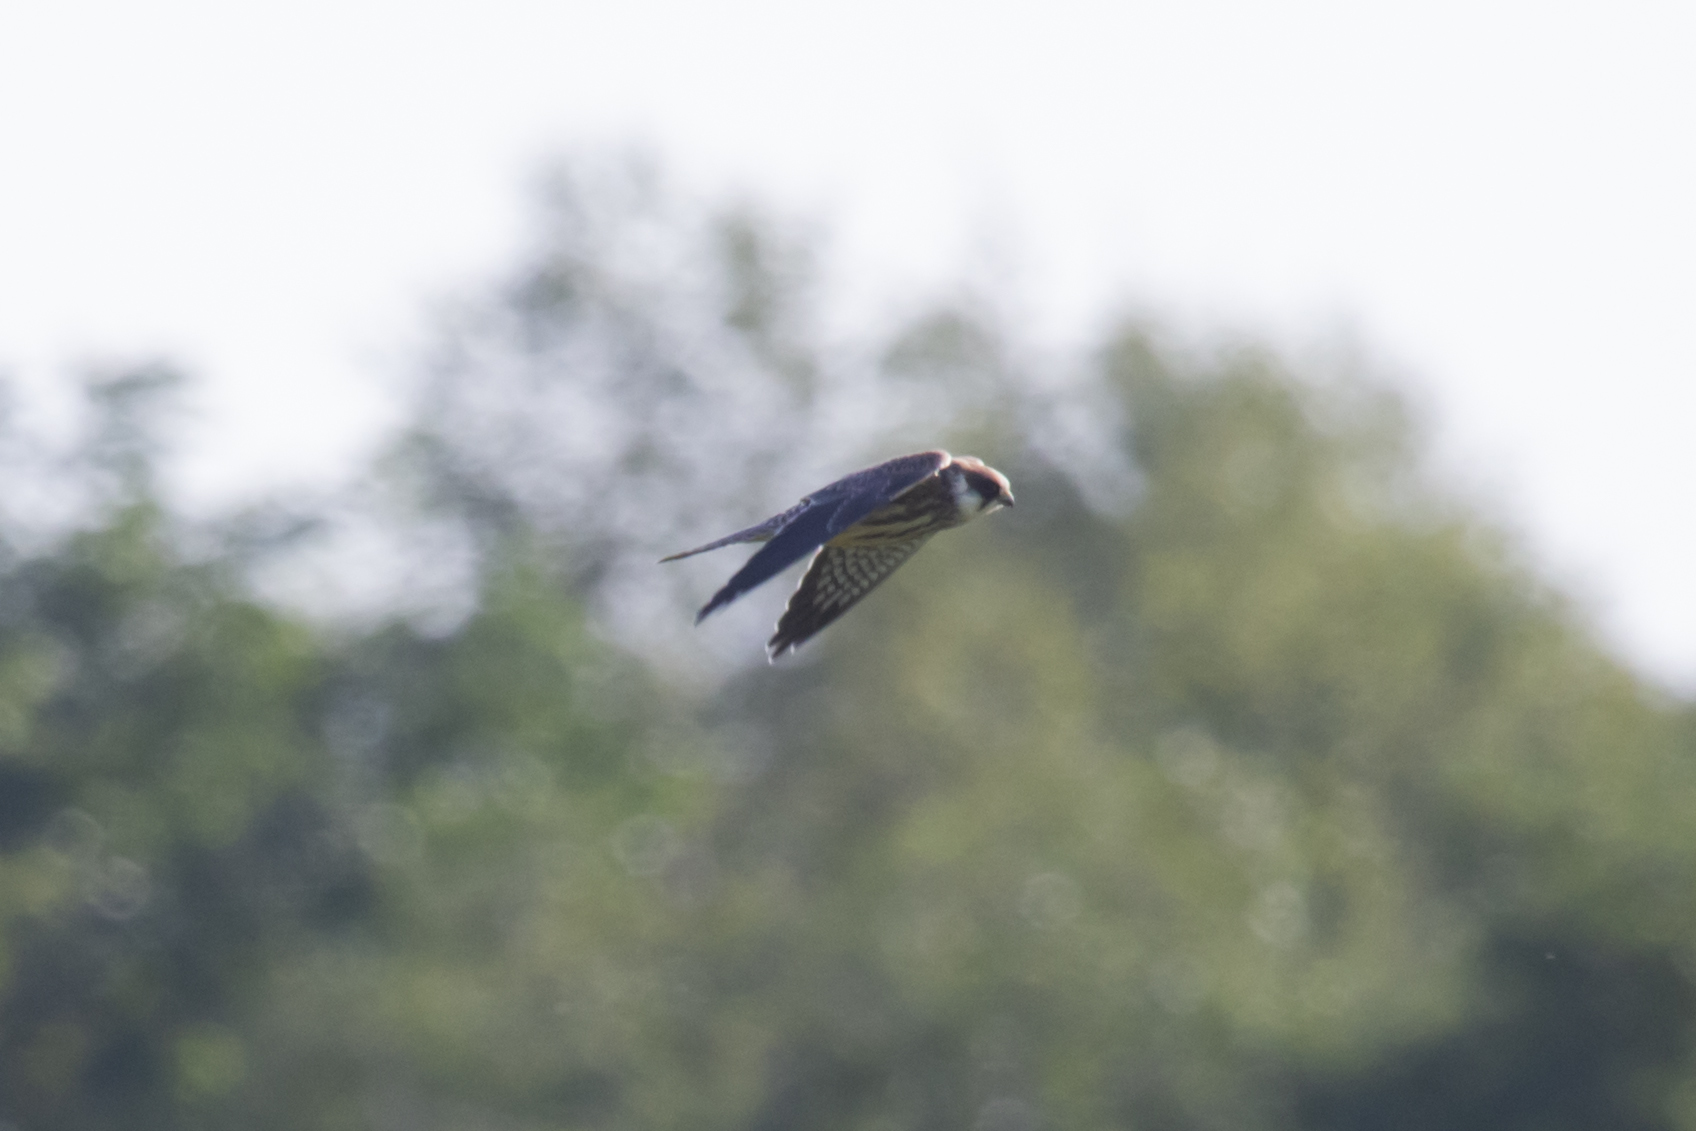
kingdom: Animalia
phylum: Chordata
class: Aves
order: Falconiformes
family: Falconidae
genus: Falco
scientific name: Falco vespertinus
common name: Red-footed falcon
